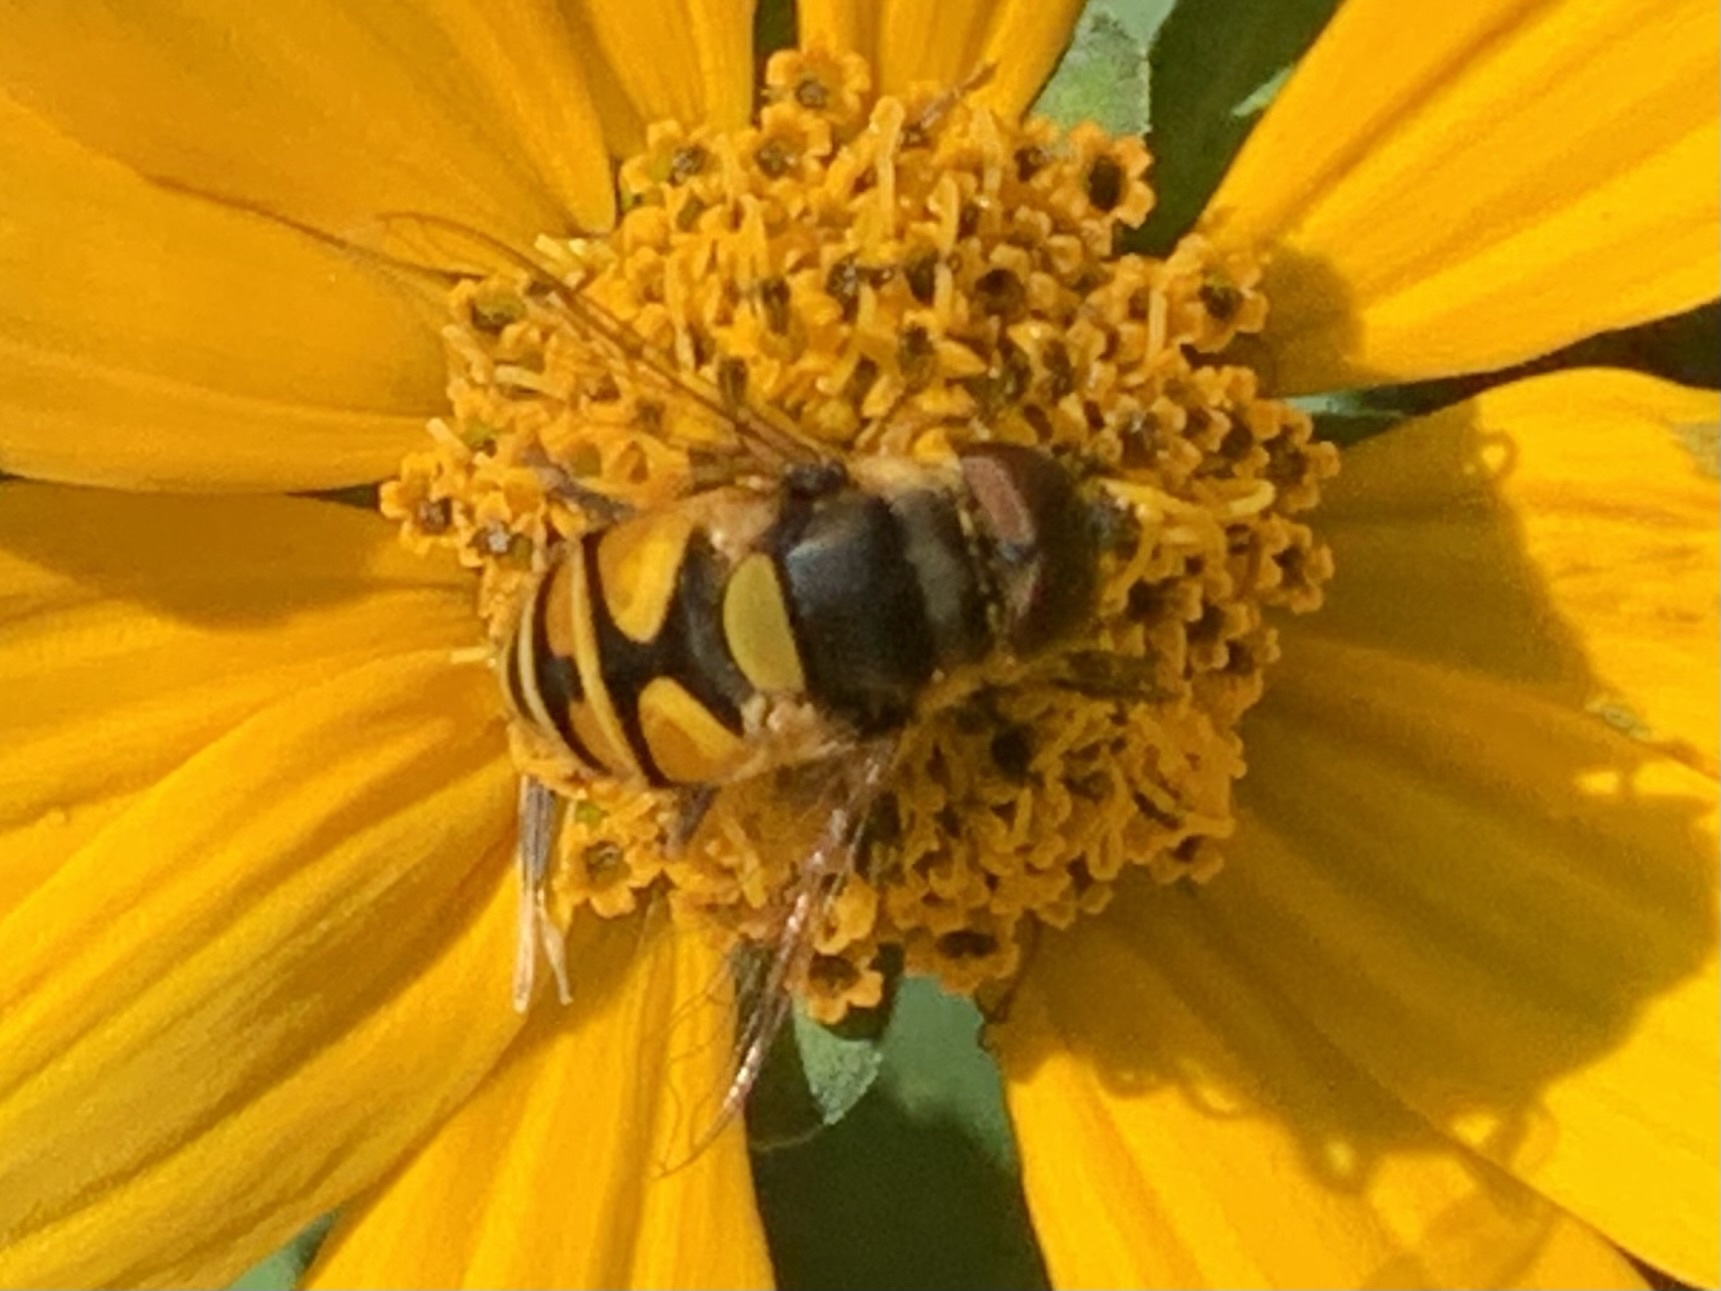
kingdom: Animalia
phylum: Arthropoda
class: Insecta
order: Diptera
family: Syrphidae
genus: Eristalis
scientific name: Eristalis transversa
